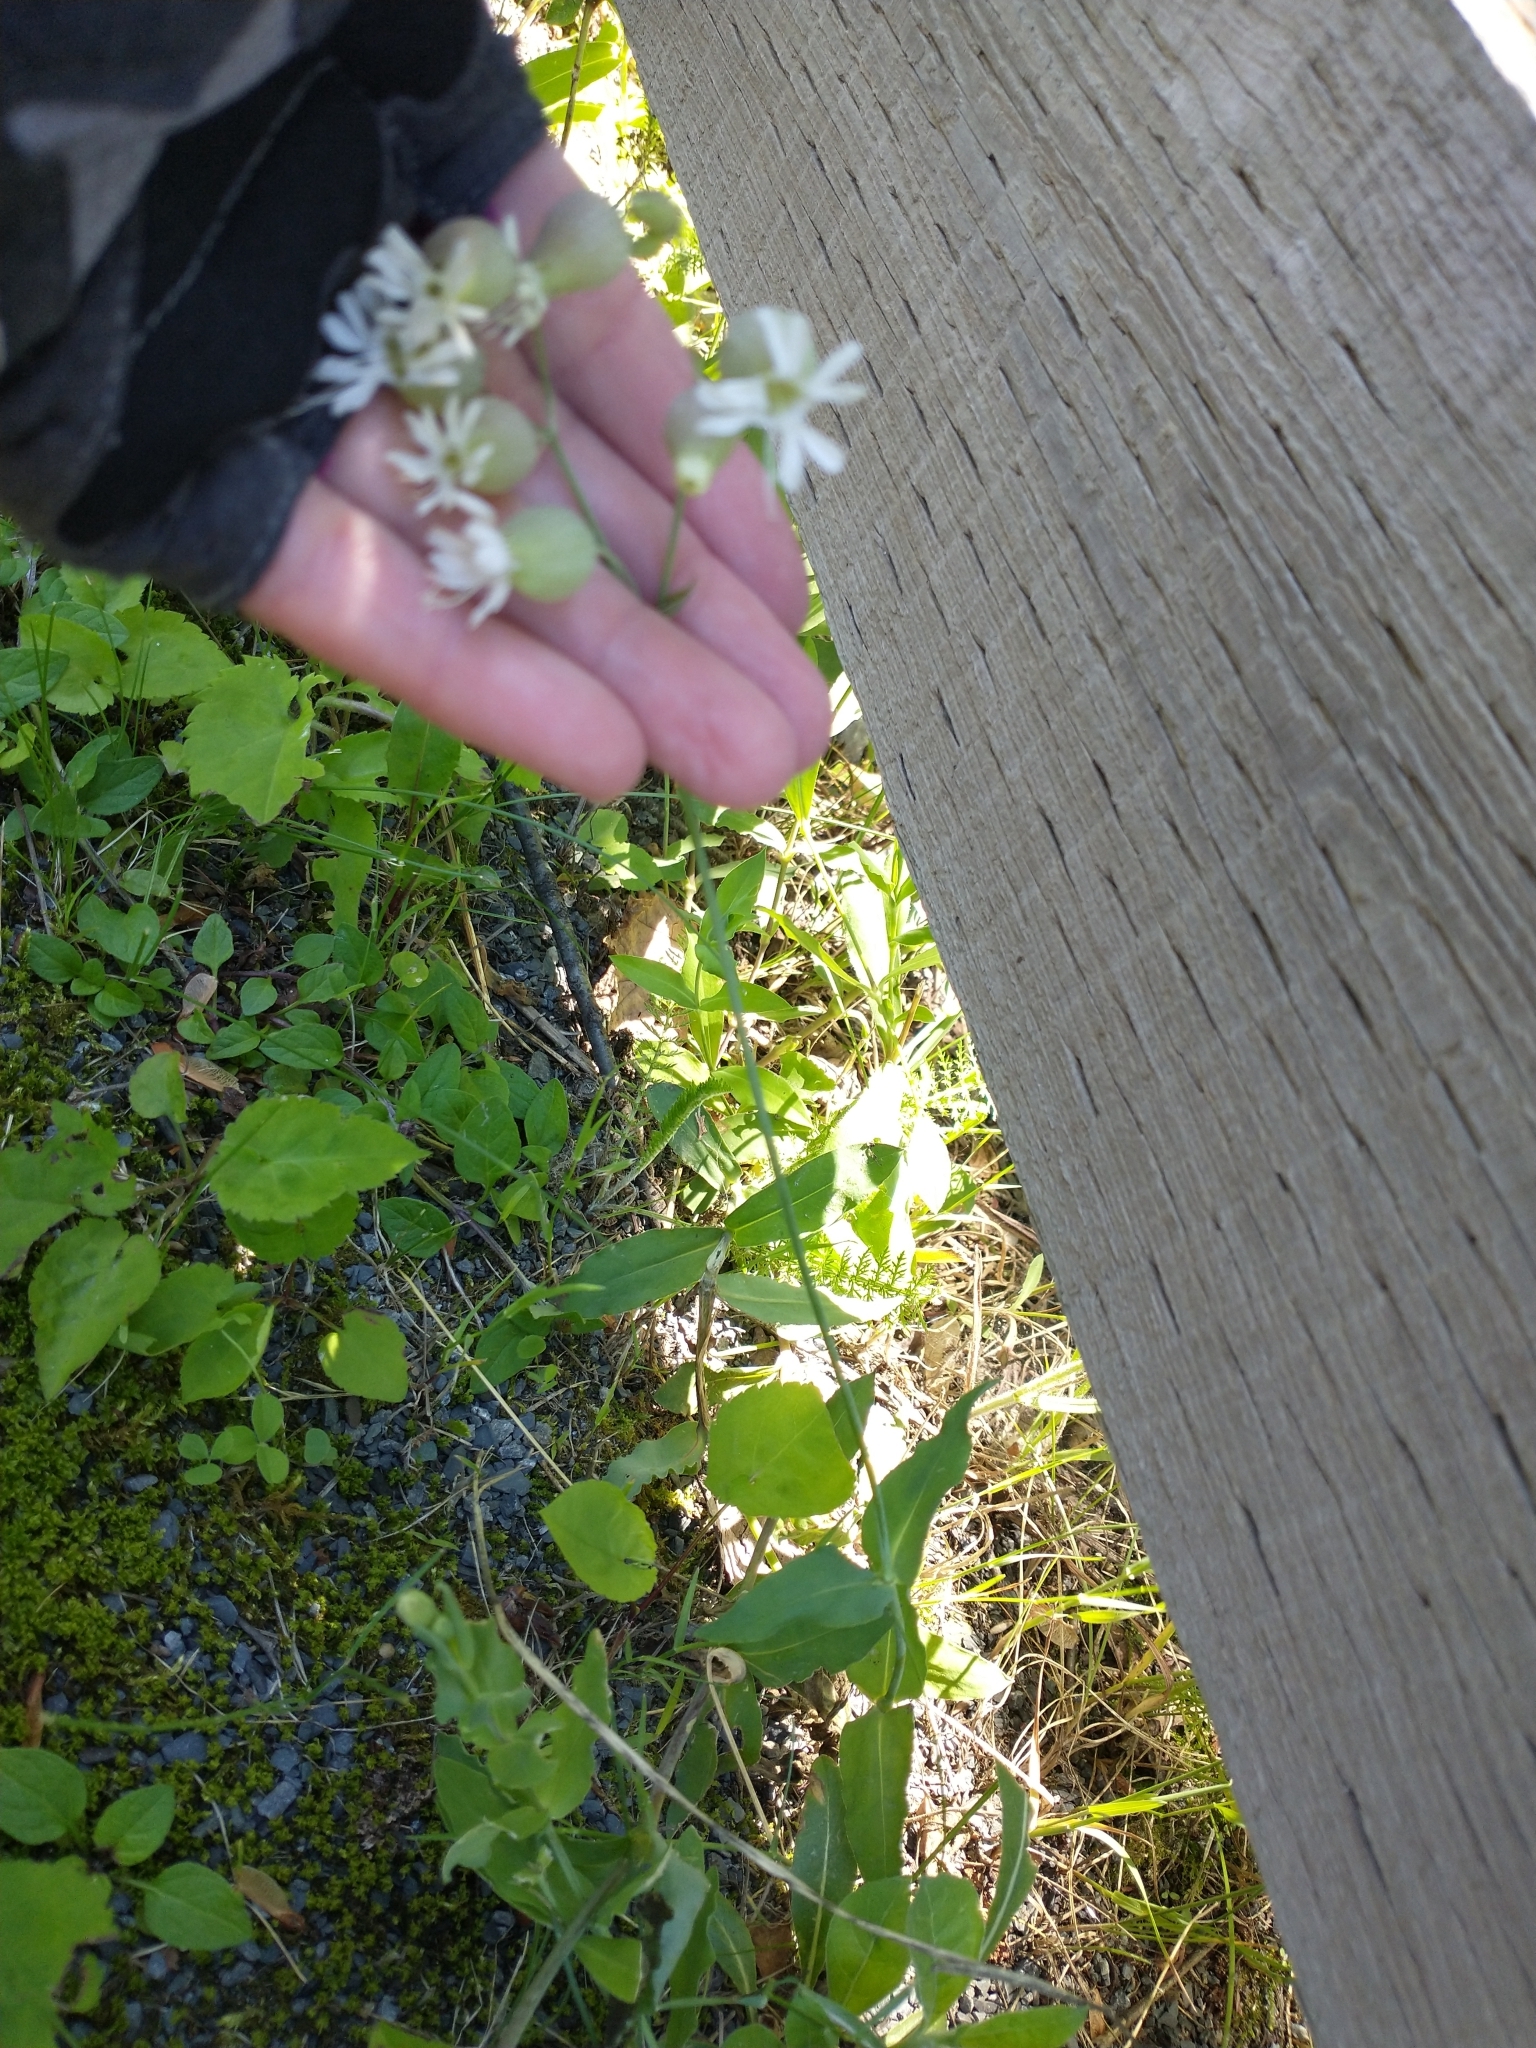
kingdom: Plantae
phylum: Tracheophyta
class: Magnoliopsida
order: Caryophyllales
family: Caryophyllaceae
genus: Silene
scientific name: Silene vulgaris
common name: Bladder campion
